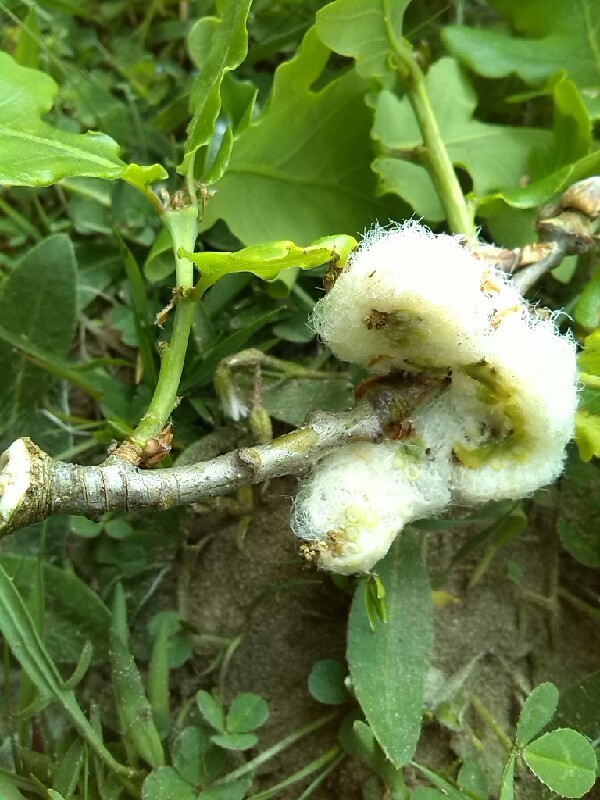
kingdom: Animalia
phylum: Arthropoda
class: Insecta
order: Hymenoptera
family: Cynipidae
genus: Andricus
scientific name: Andricus quercusramuli
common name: Cottonwool gall
